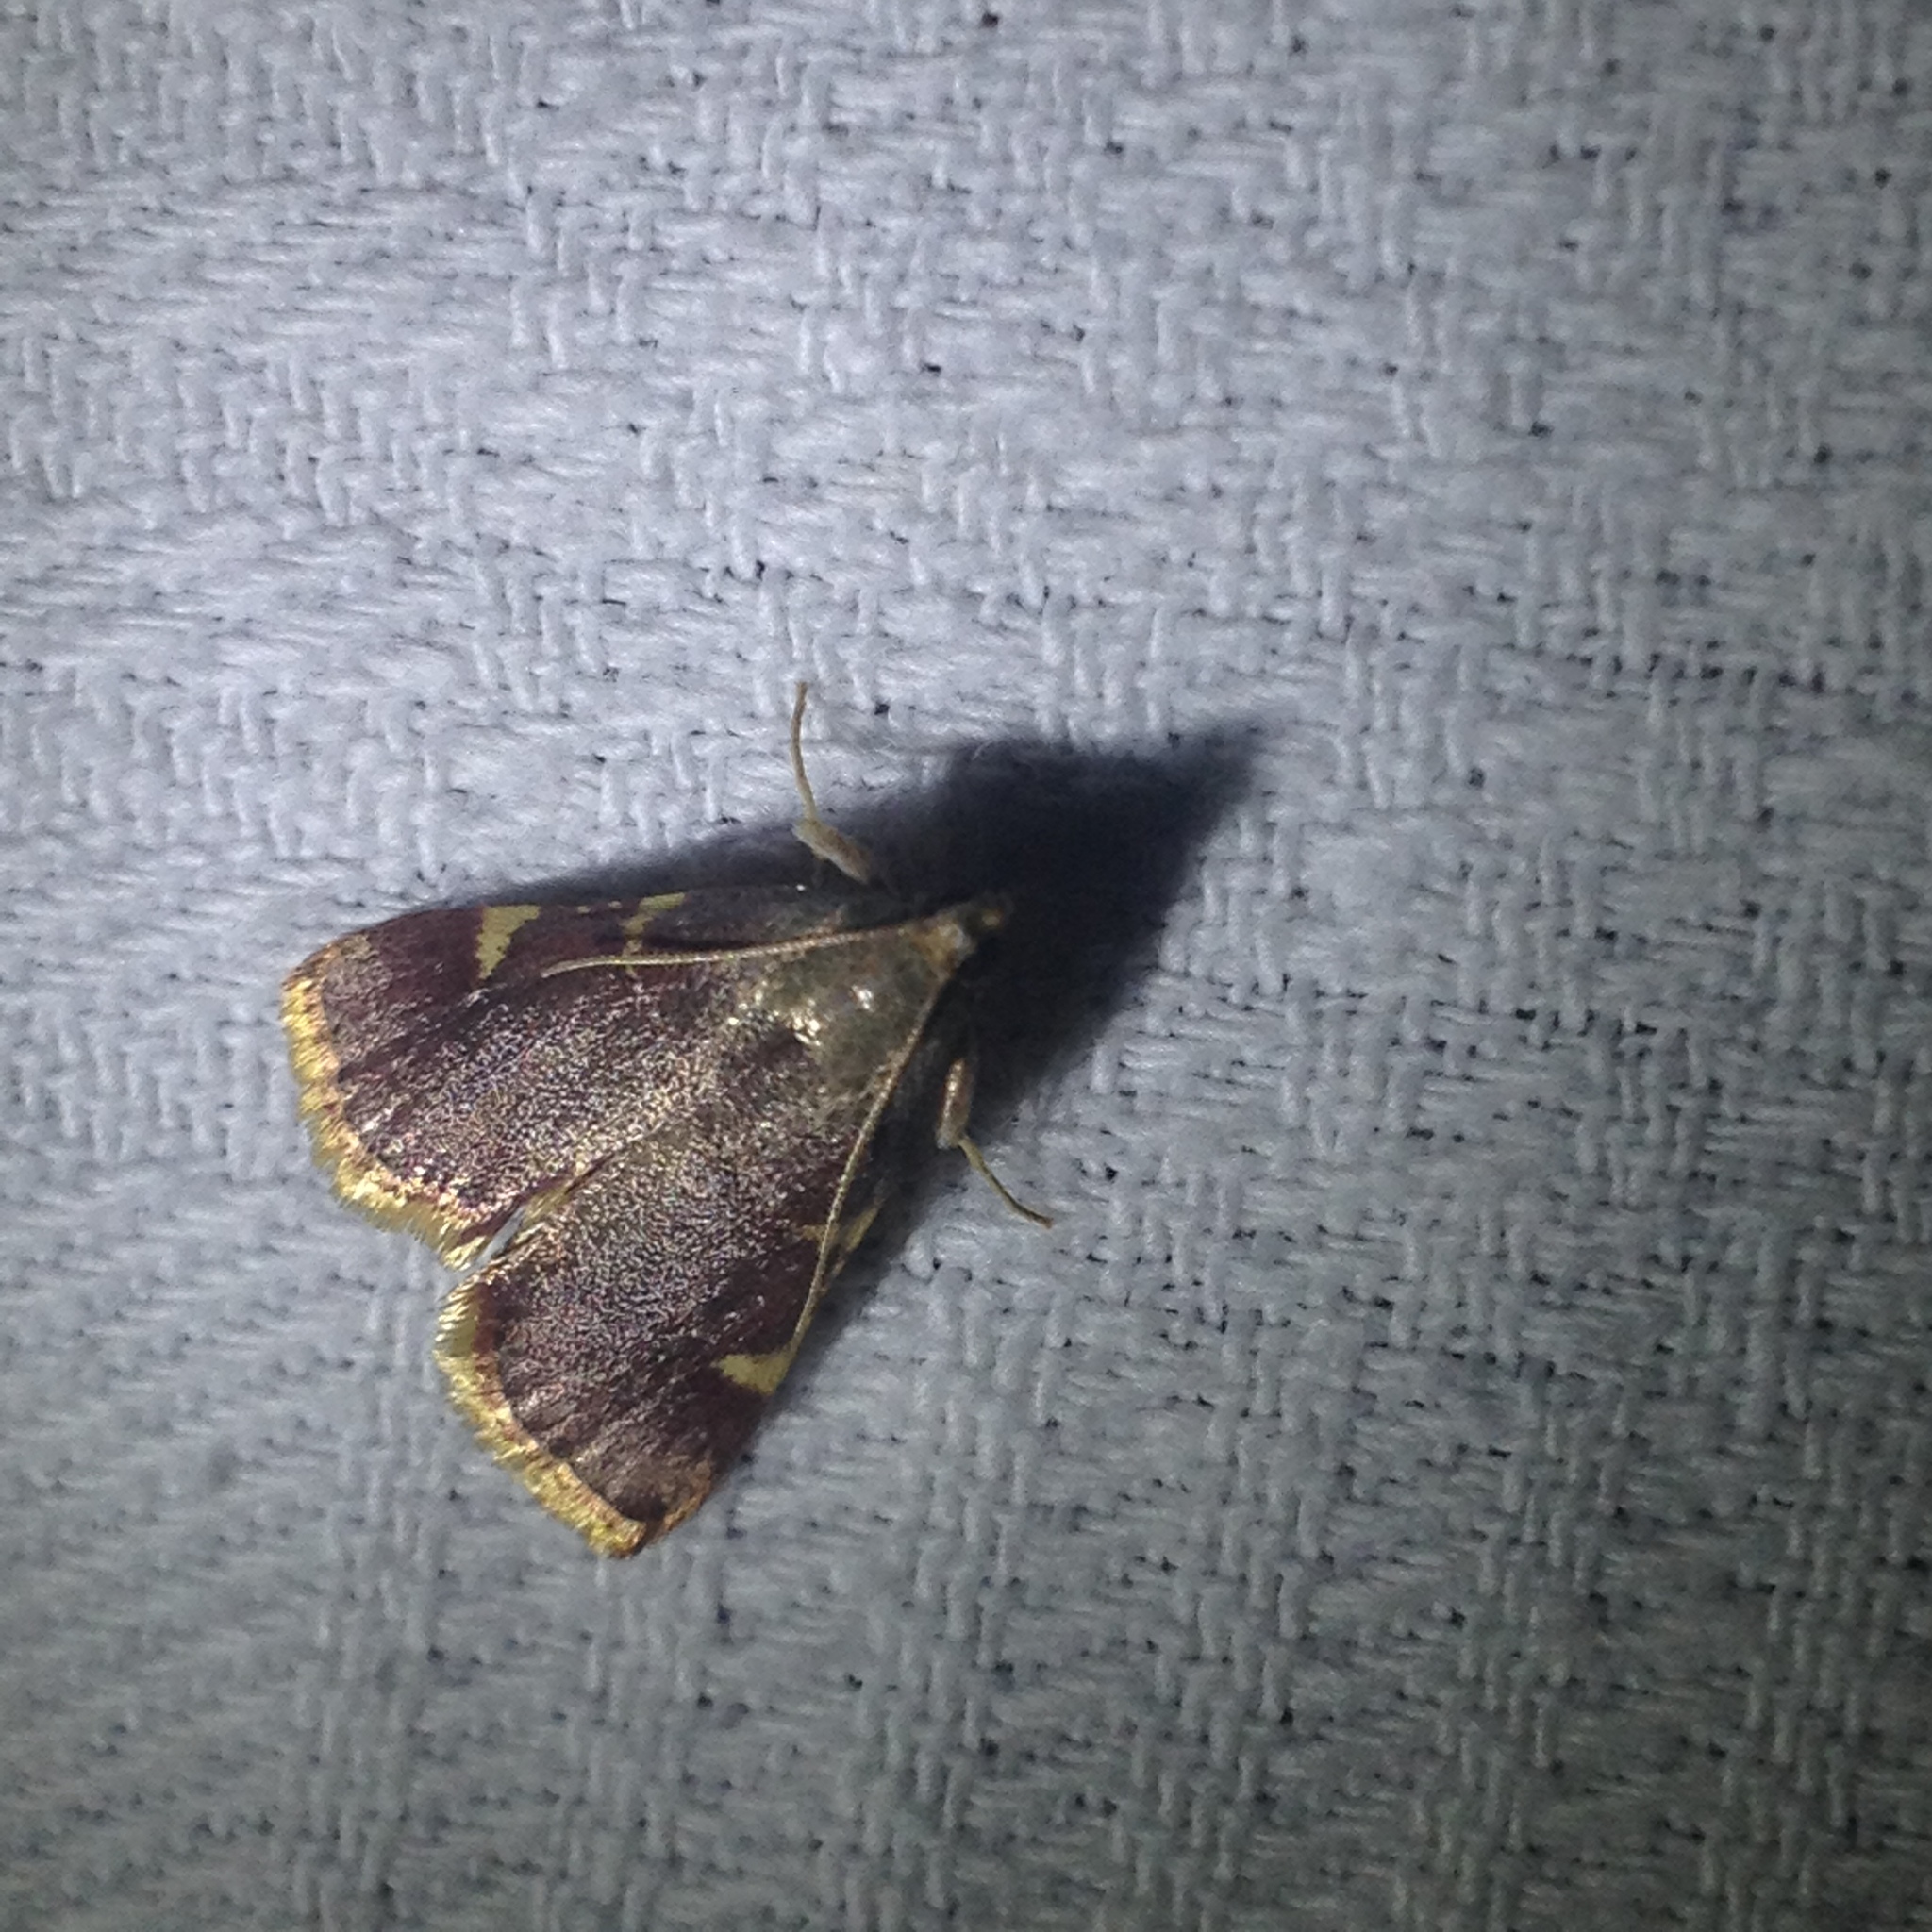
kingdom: Animalia
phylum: Arthropoda
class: Insecta
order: Lepidoptera
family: Pyralidae
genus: Hypsopygia
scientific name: Hypsopygia olinalis
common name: Yellow-fringed dolichomia moth
